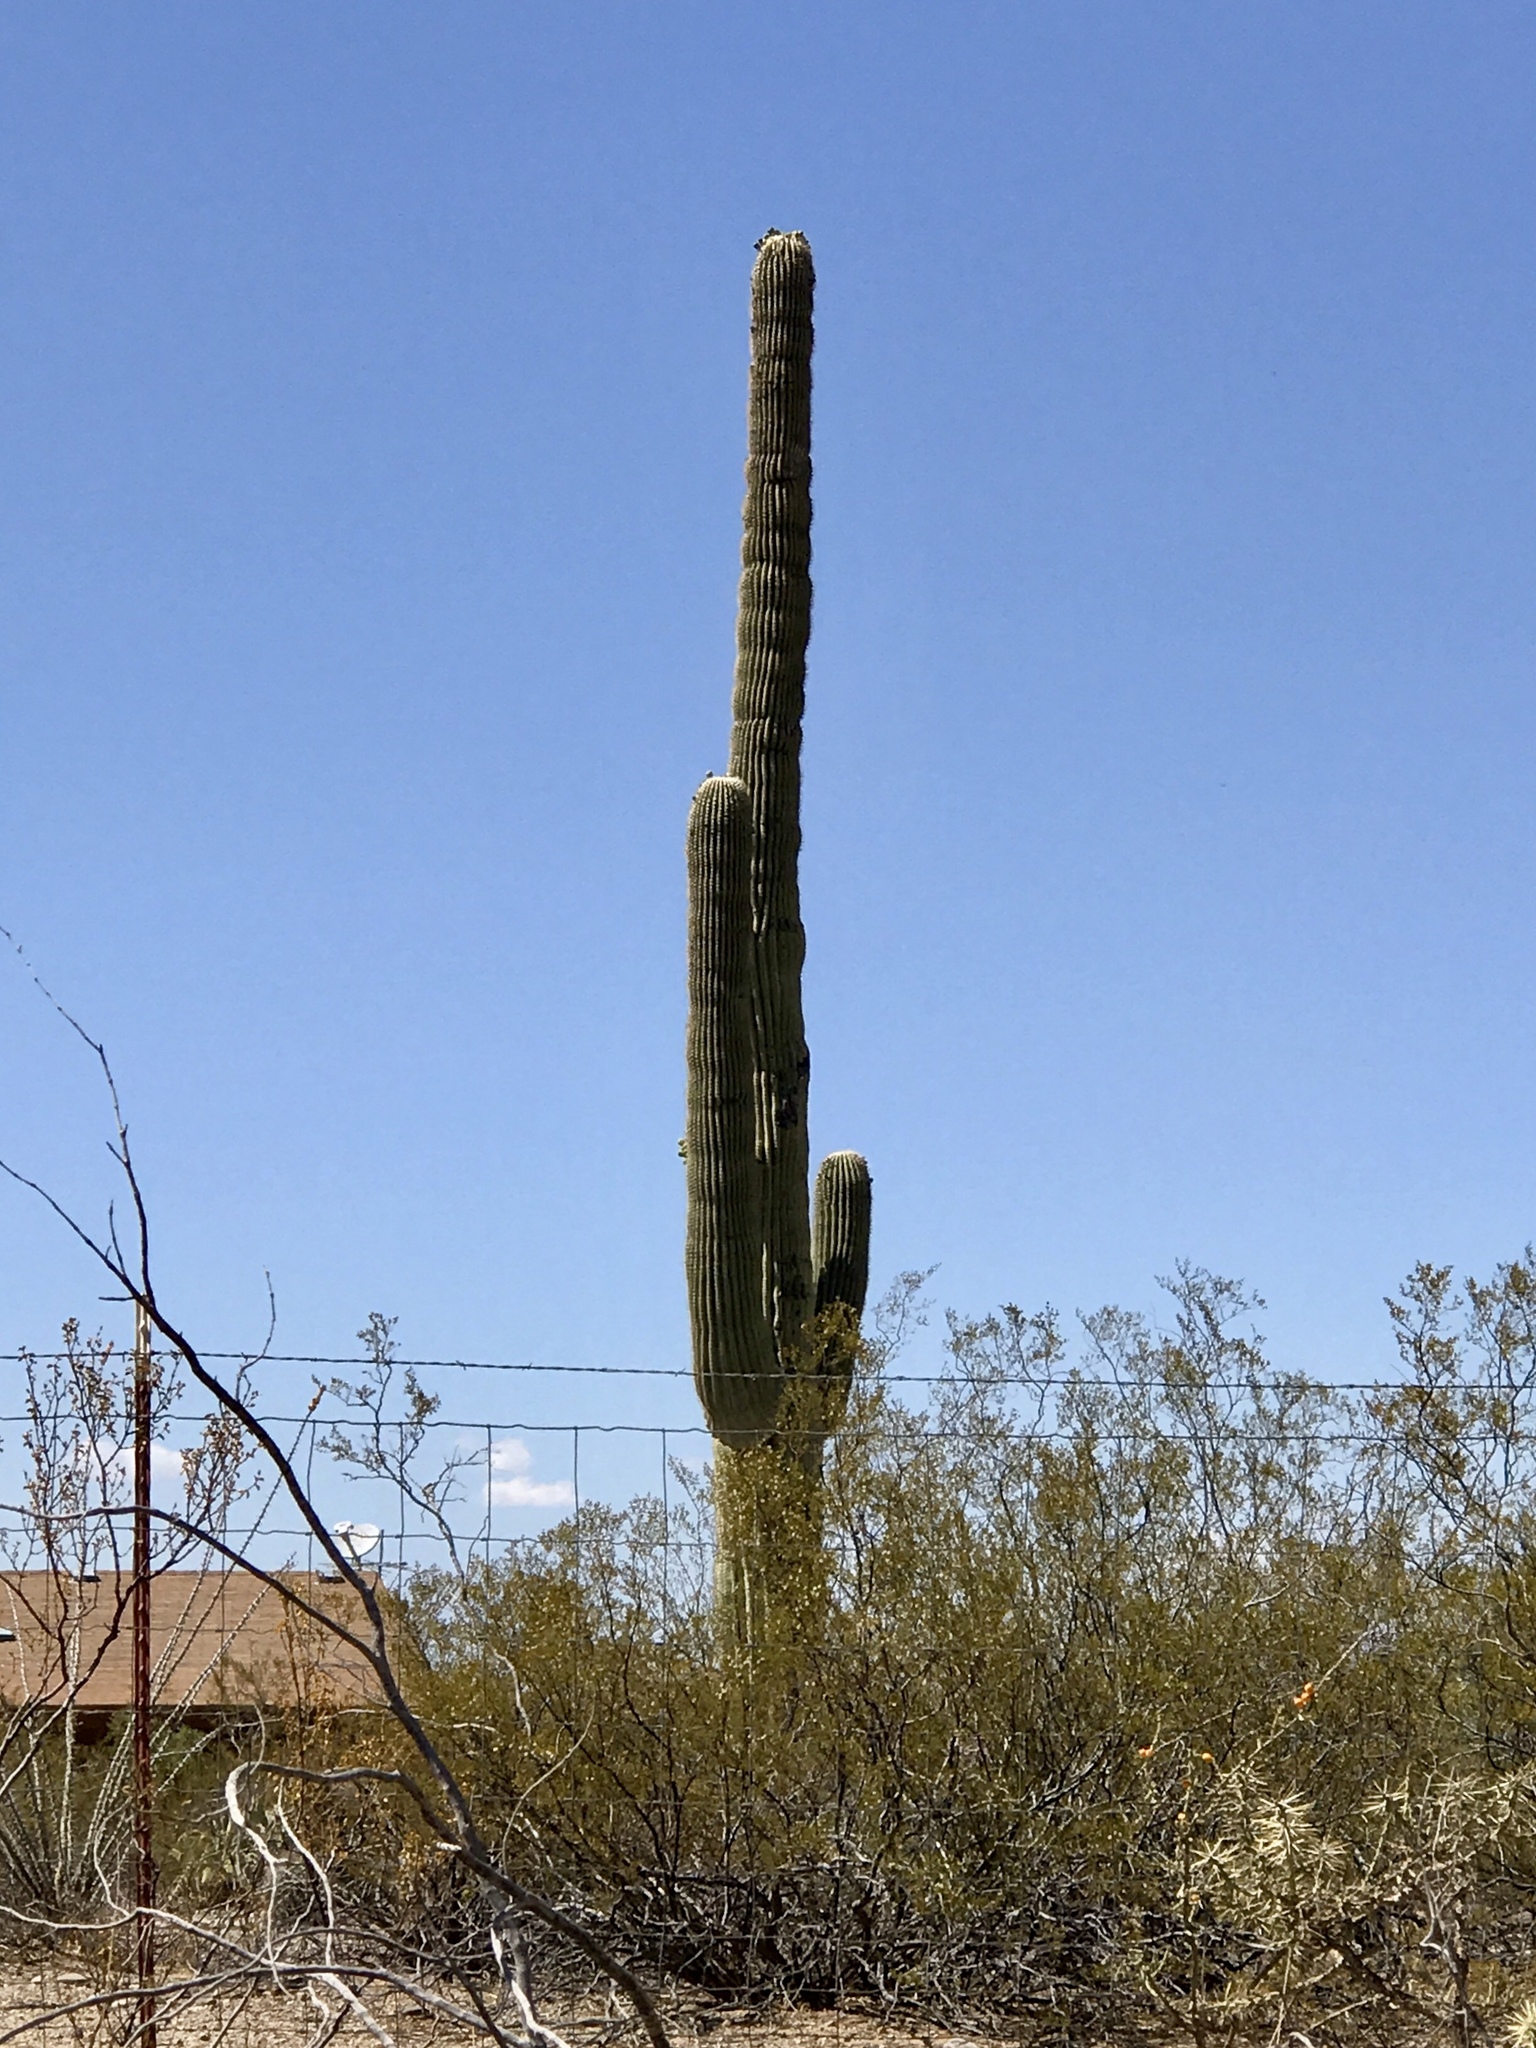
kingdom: Plantae
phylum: Tracheophyta
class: Magnoliopsida
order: Caryophyllales
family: Cactaceae
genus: Carnegiea
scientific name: Carnegiea gigantea
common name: Saguaro
